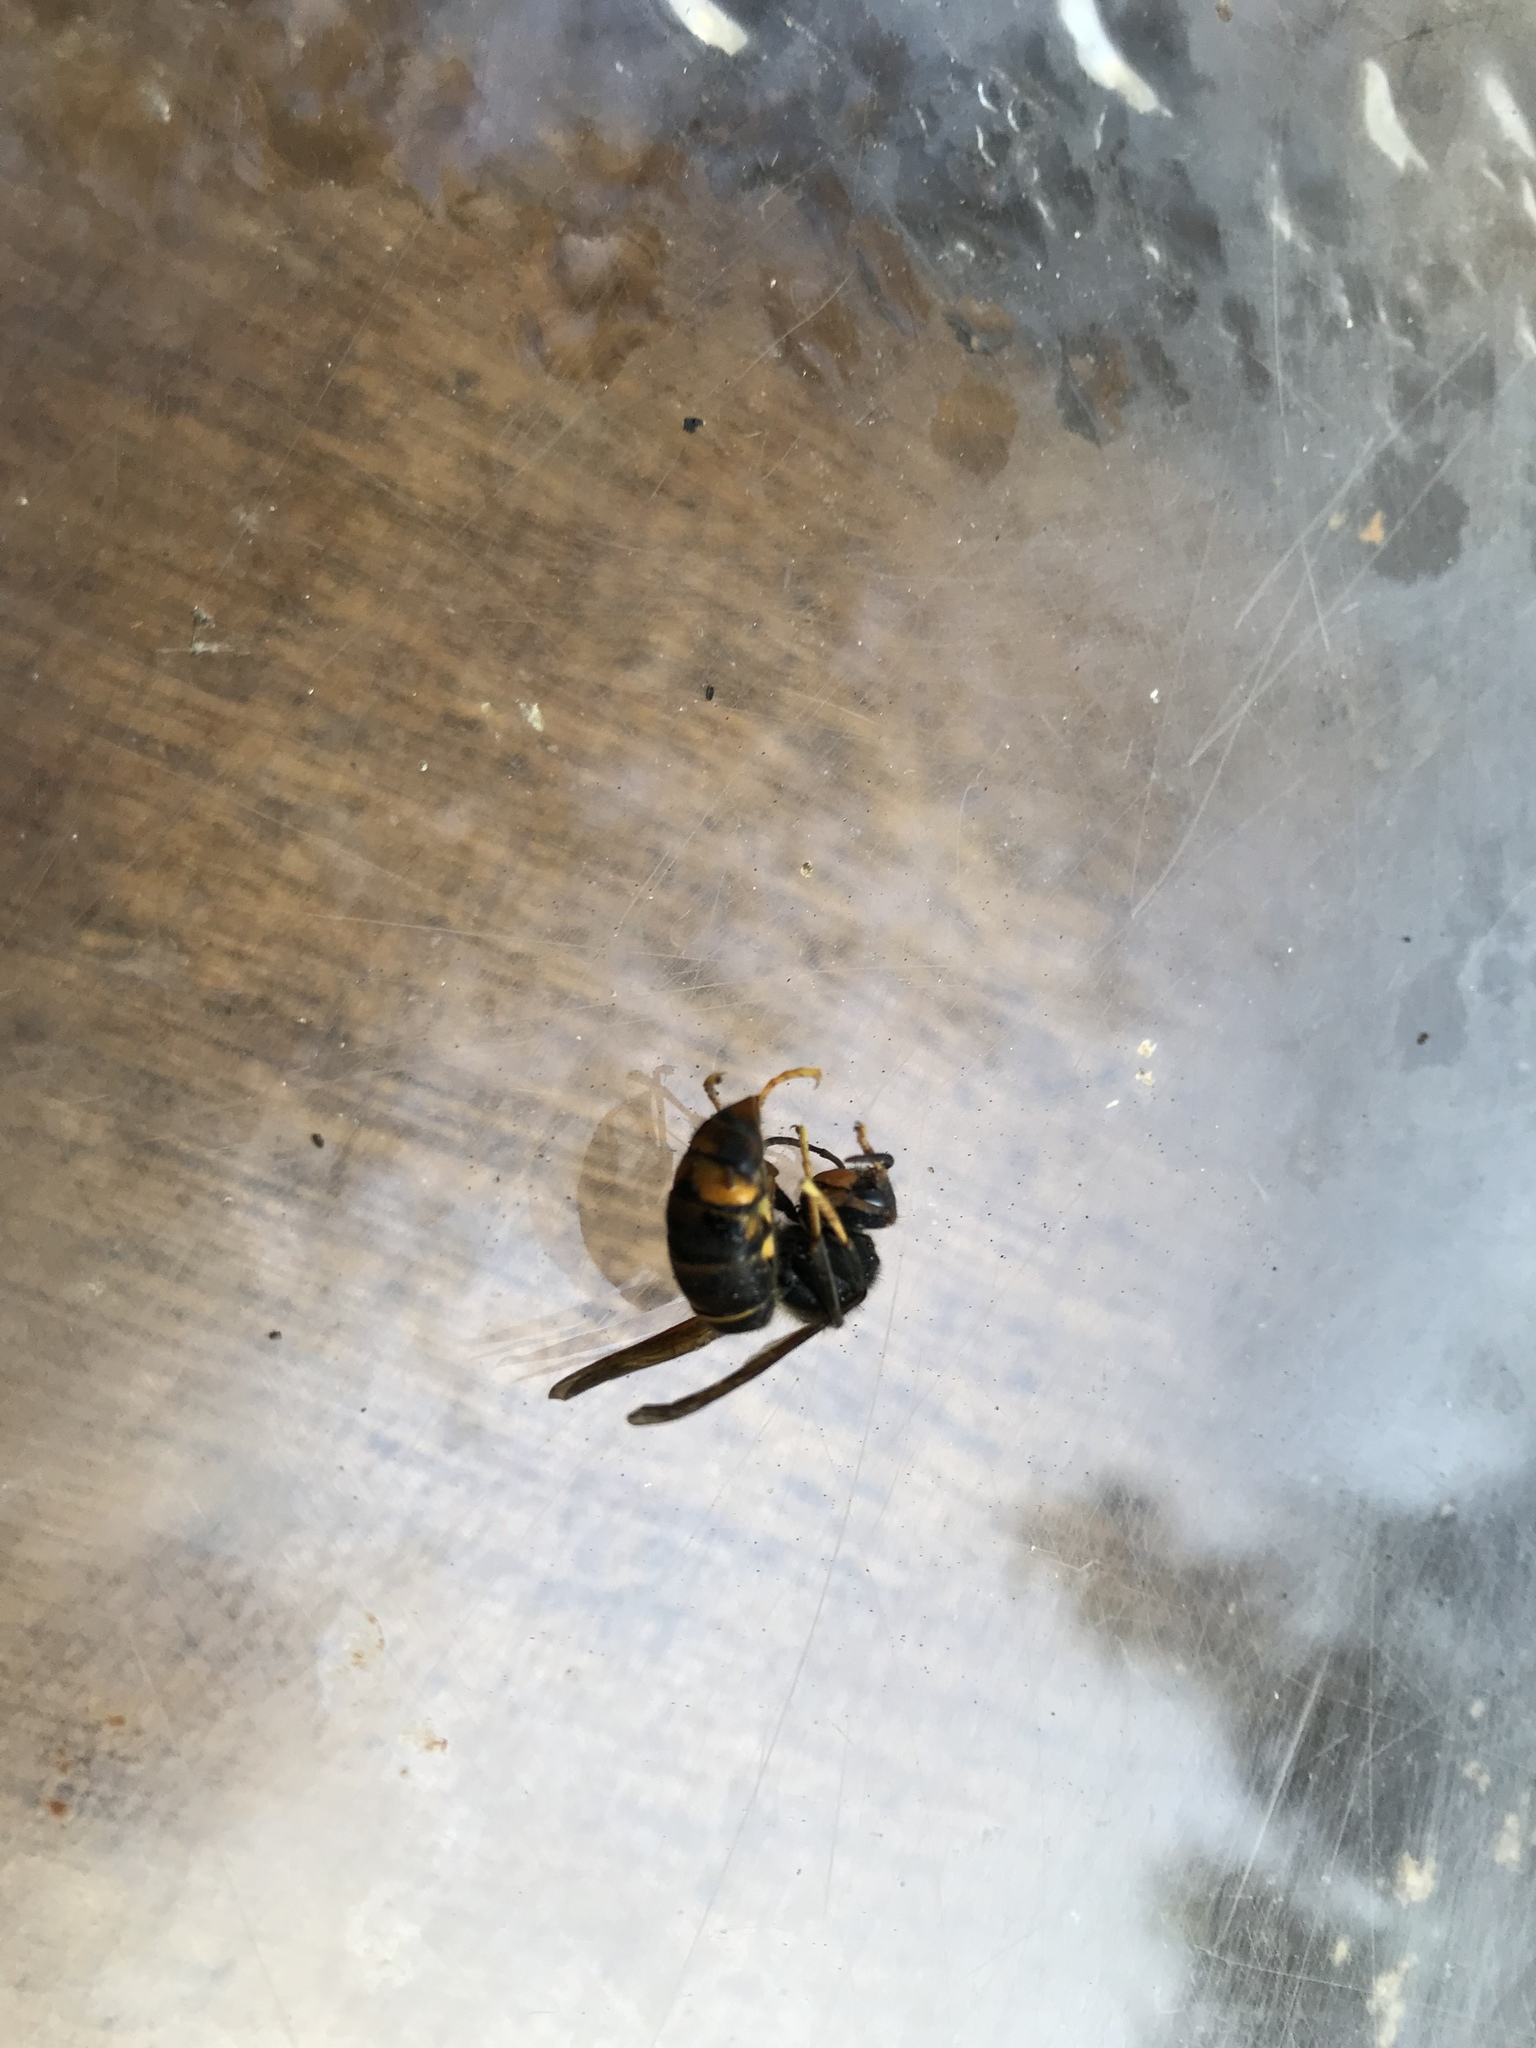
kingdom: Animalia
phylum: Arthropoda
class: Insecta
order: Hymenoptera
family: Vespidae
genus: Vespa
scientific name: Vespa velutina
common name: Asian hornet
